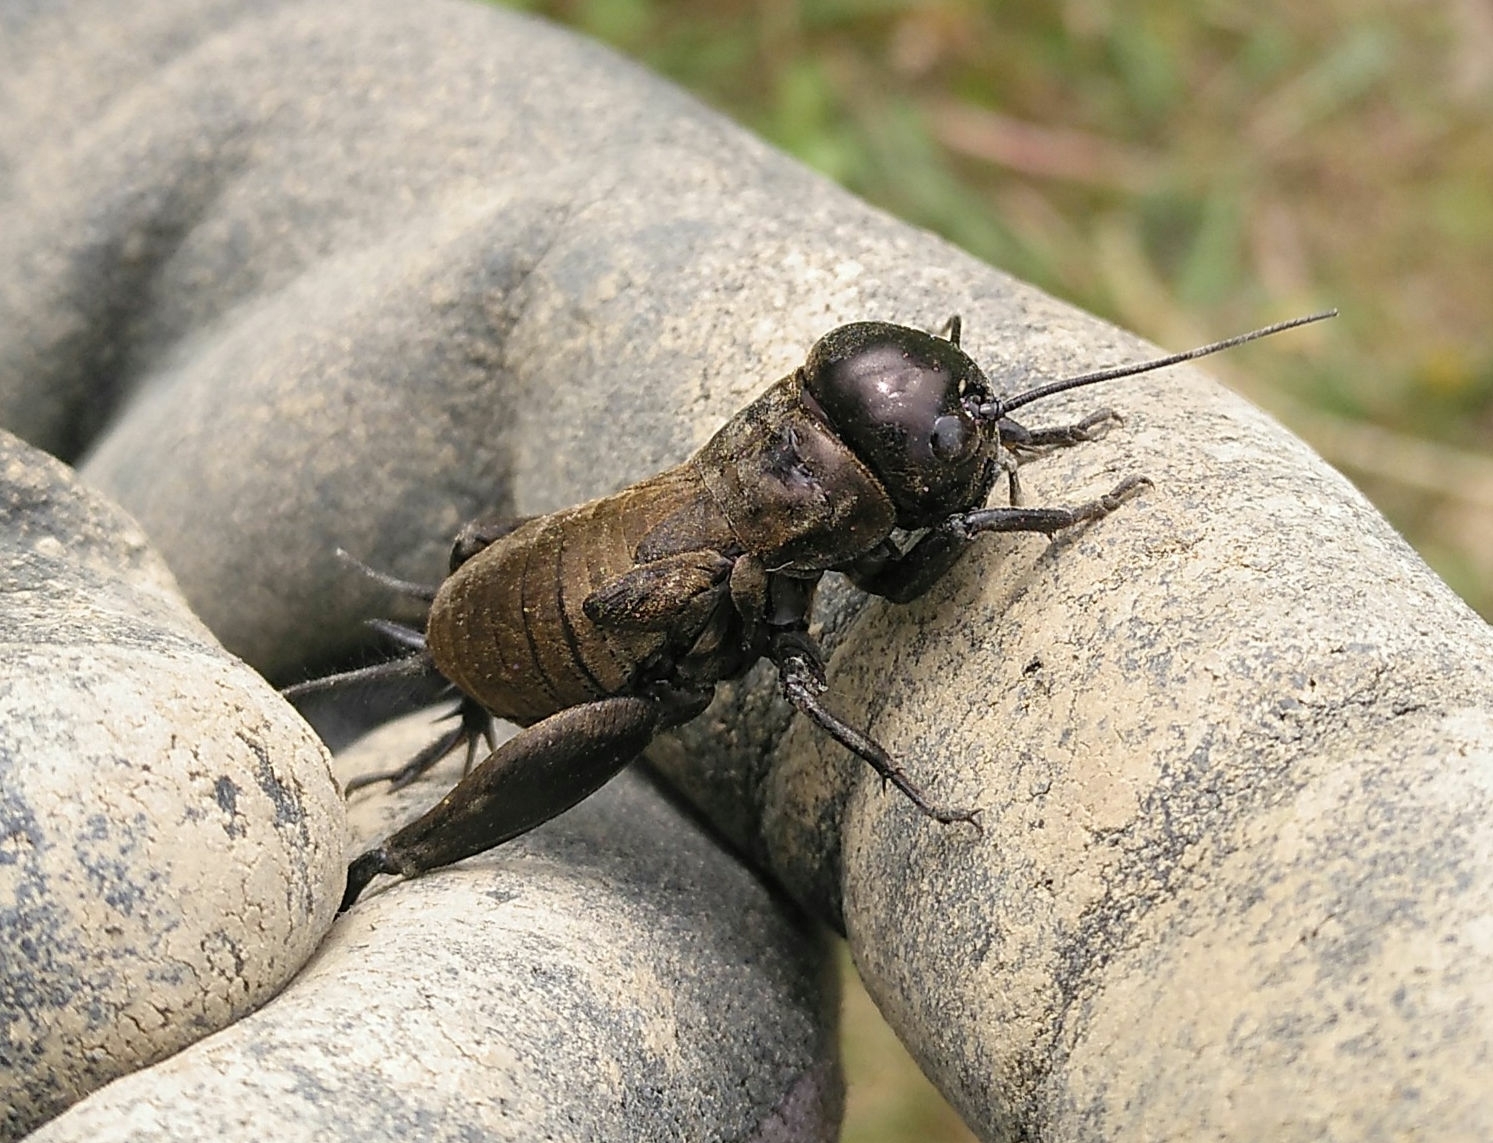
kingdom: Animalia
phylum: Arthropoda
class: Insecta
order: Orthoptera
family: Gryllidae
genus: Gryllus
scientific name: Gryllus campestris
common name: Field cricket
